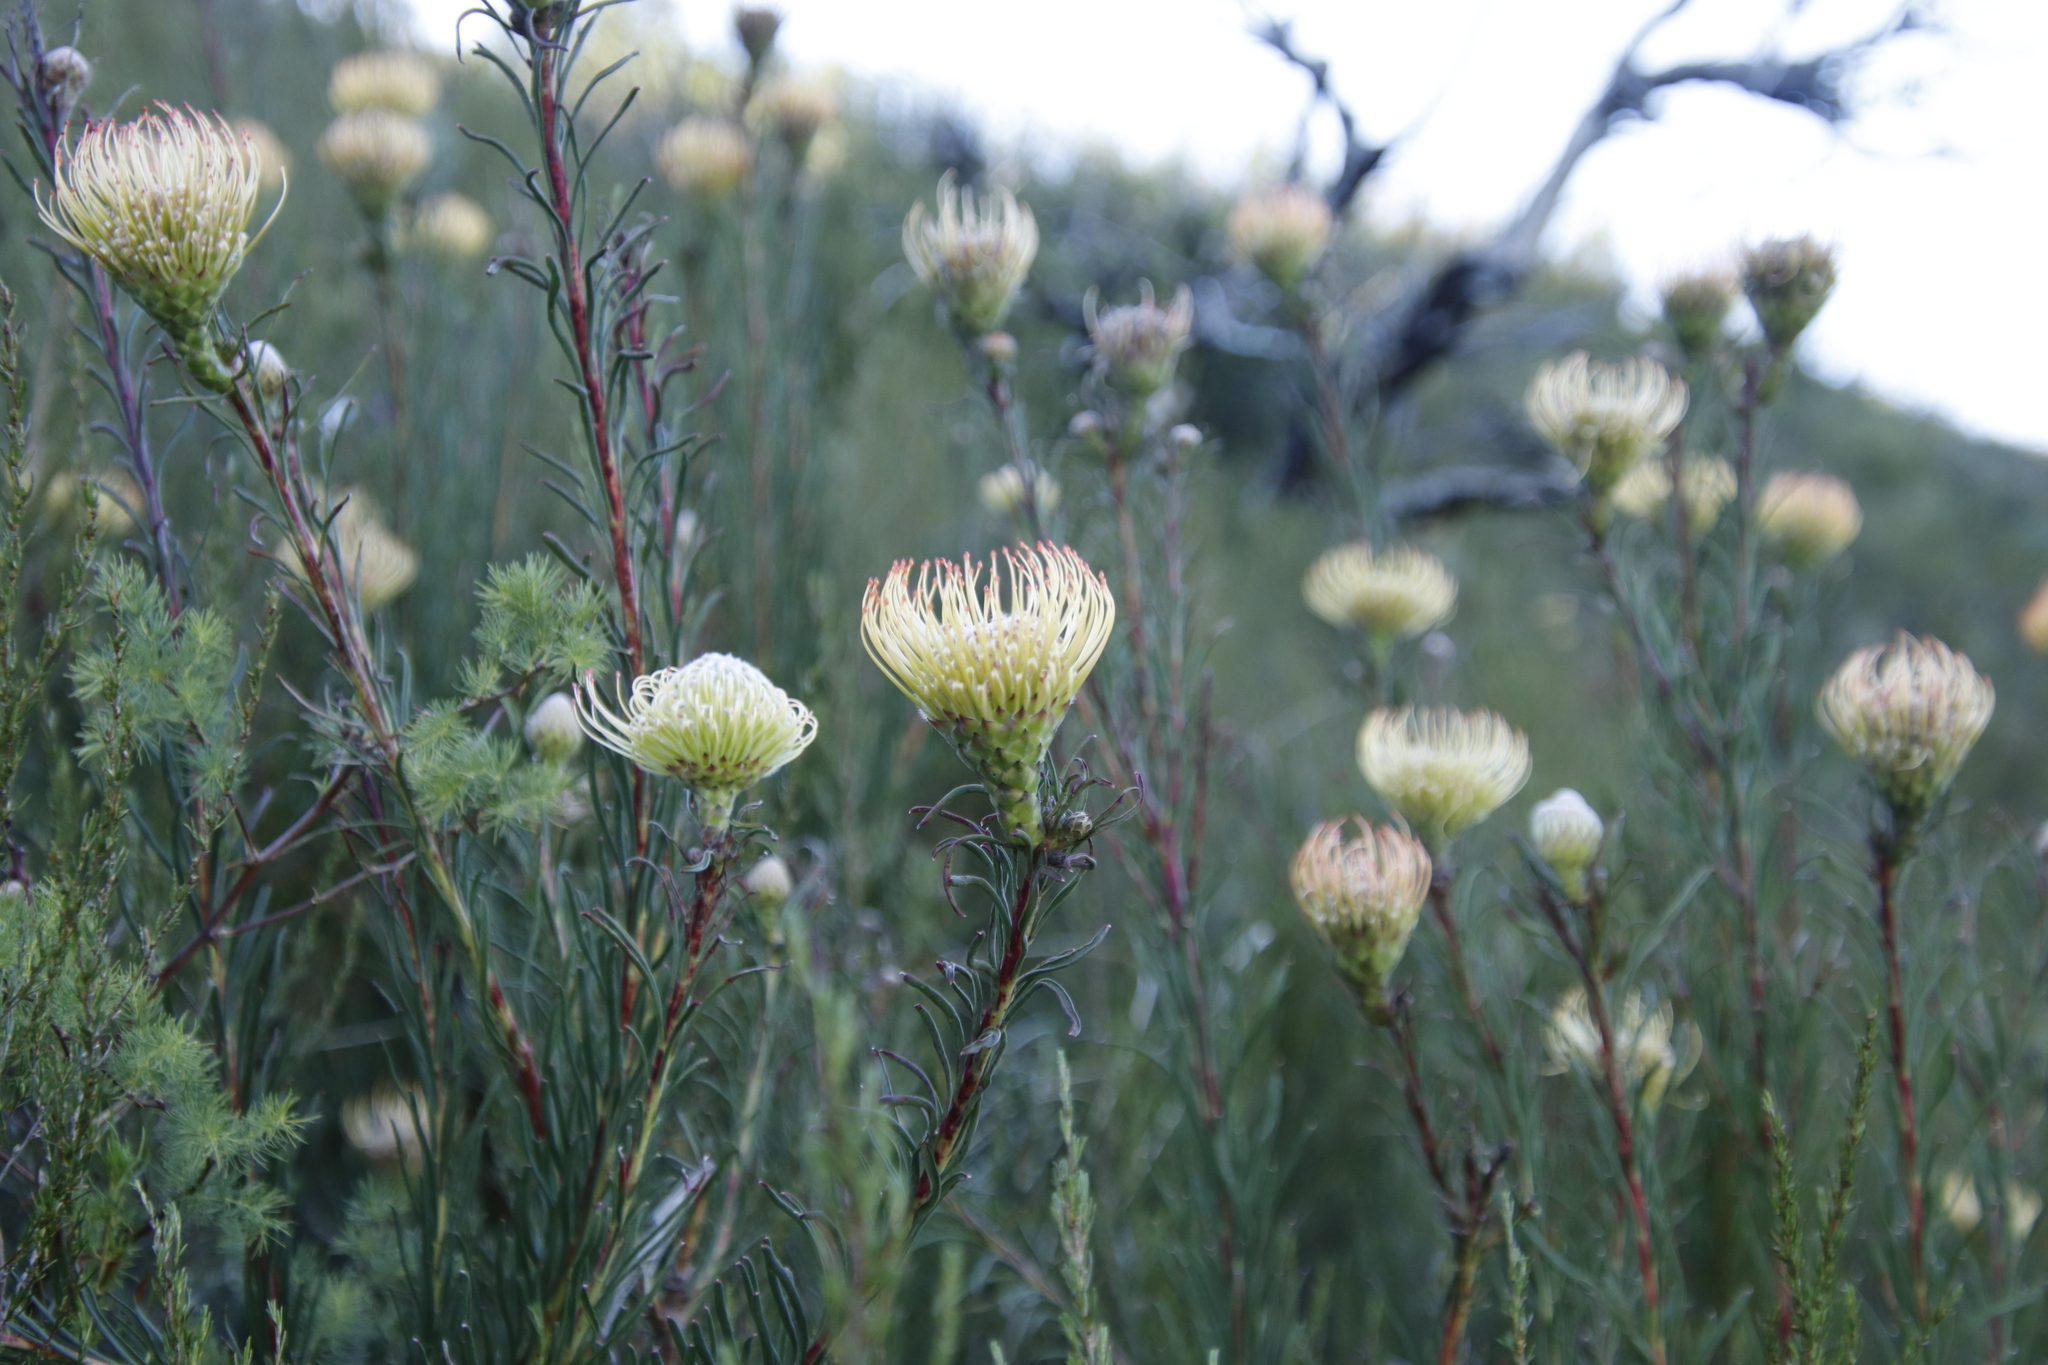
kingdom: Plantae
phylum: Tracheophyta
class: Magnoliopsida
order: Proteales
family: Proteaceae
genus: Leucospermum
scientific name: Leucospermum lineare
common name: Needle-leaf pincushion
